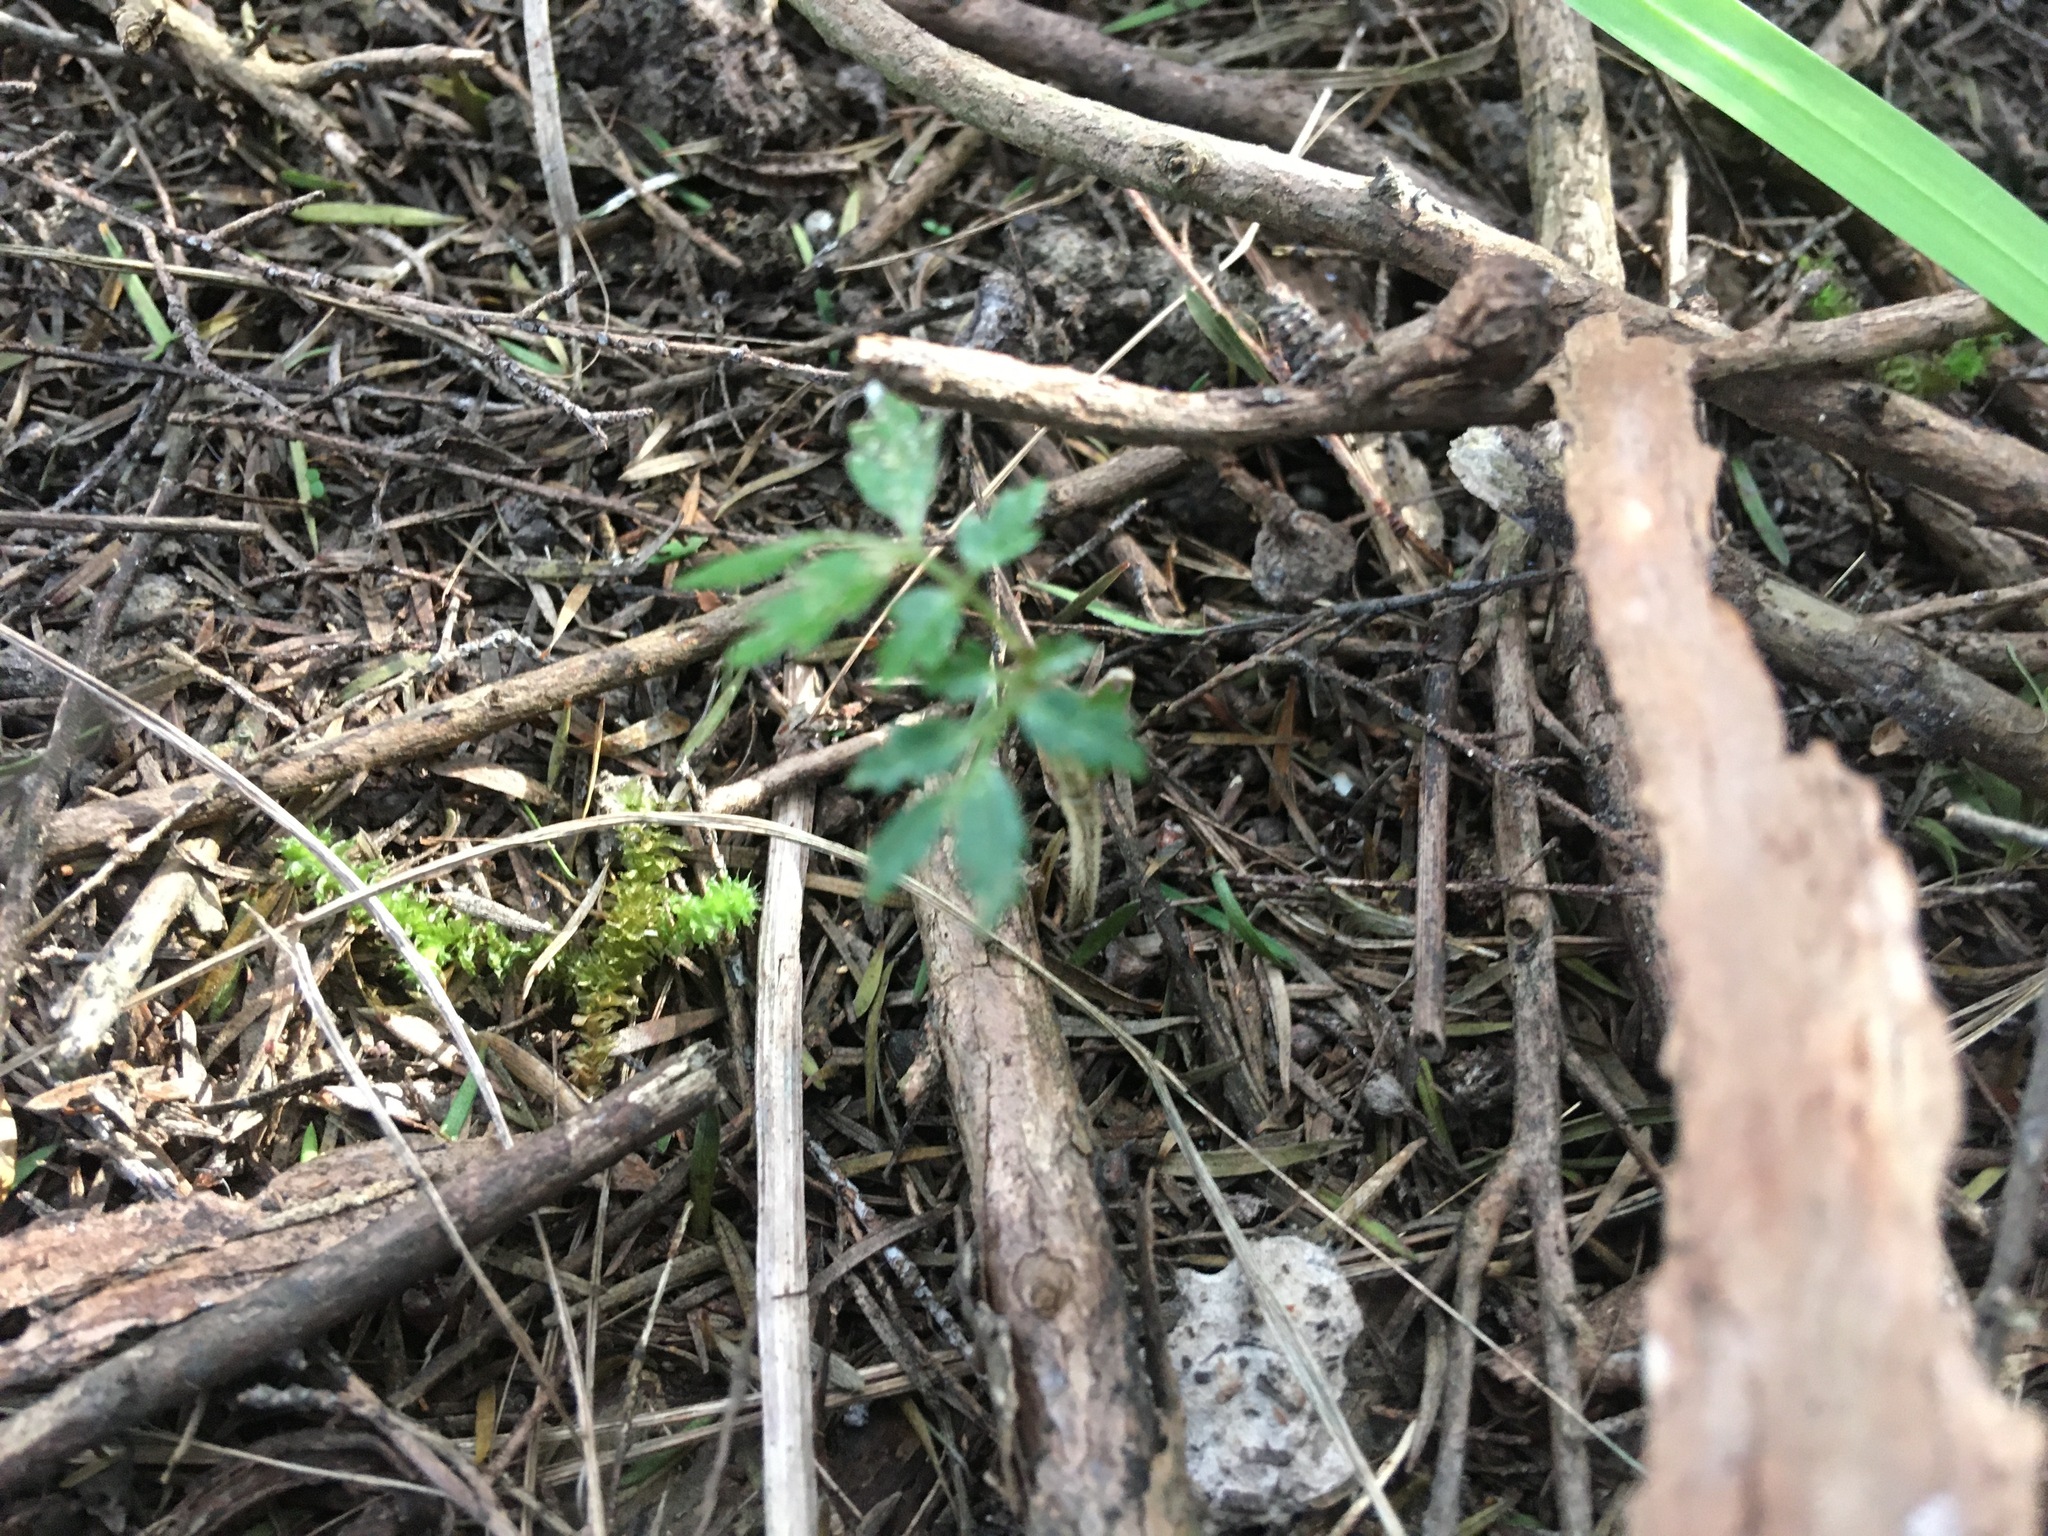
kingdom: Plantae
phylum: Bryophyta
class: Bryopsida
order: Ptychomniales
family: Ptychomniaceae
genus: Ptychomnion
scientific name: Ptychomnion aciculare
